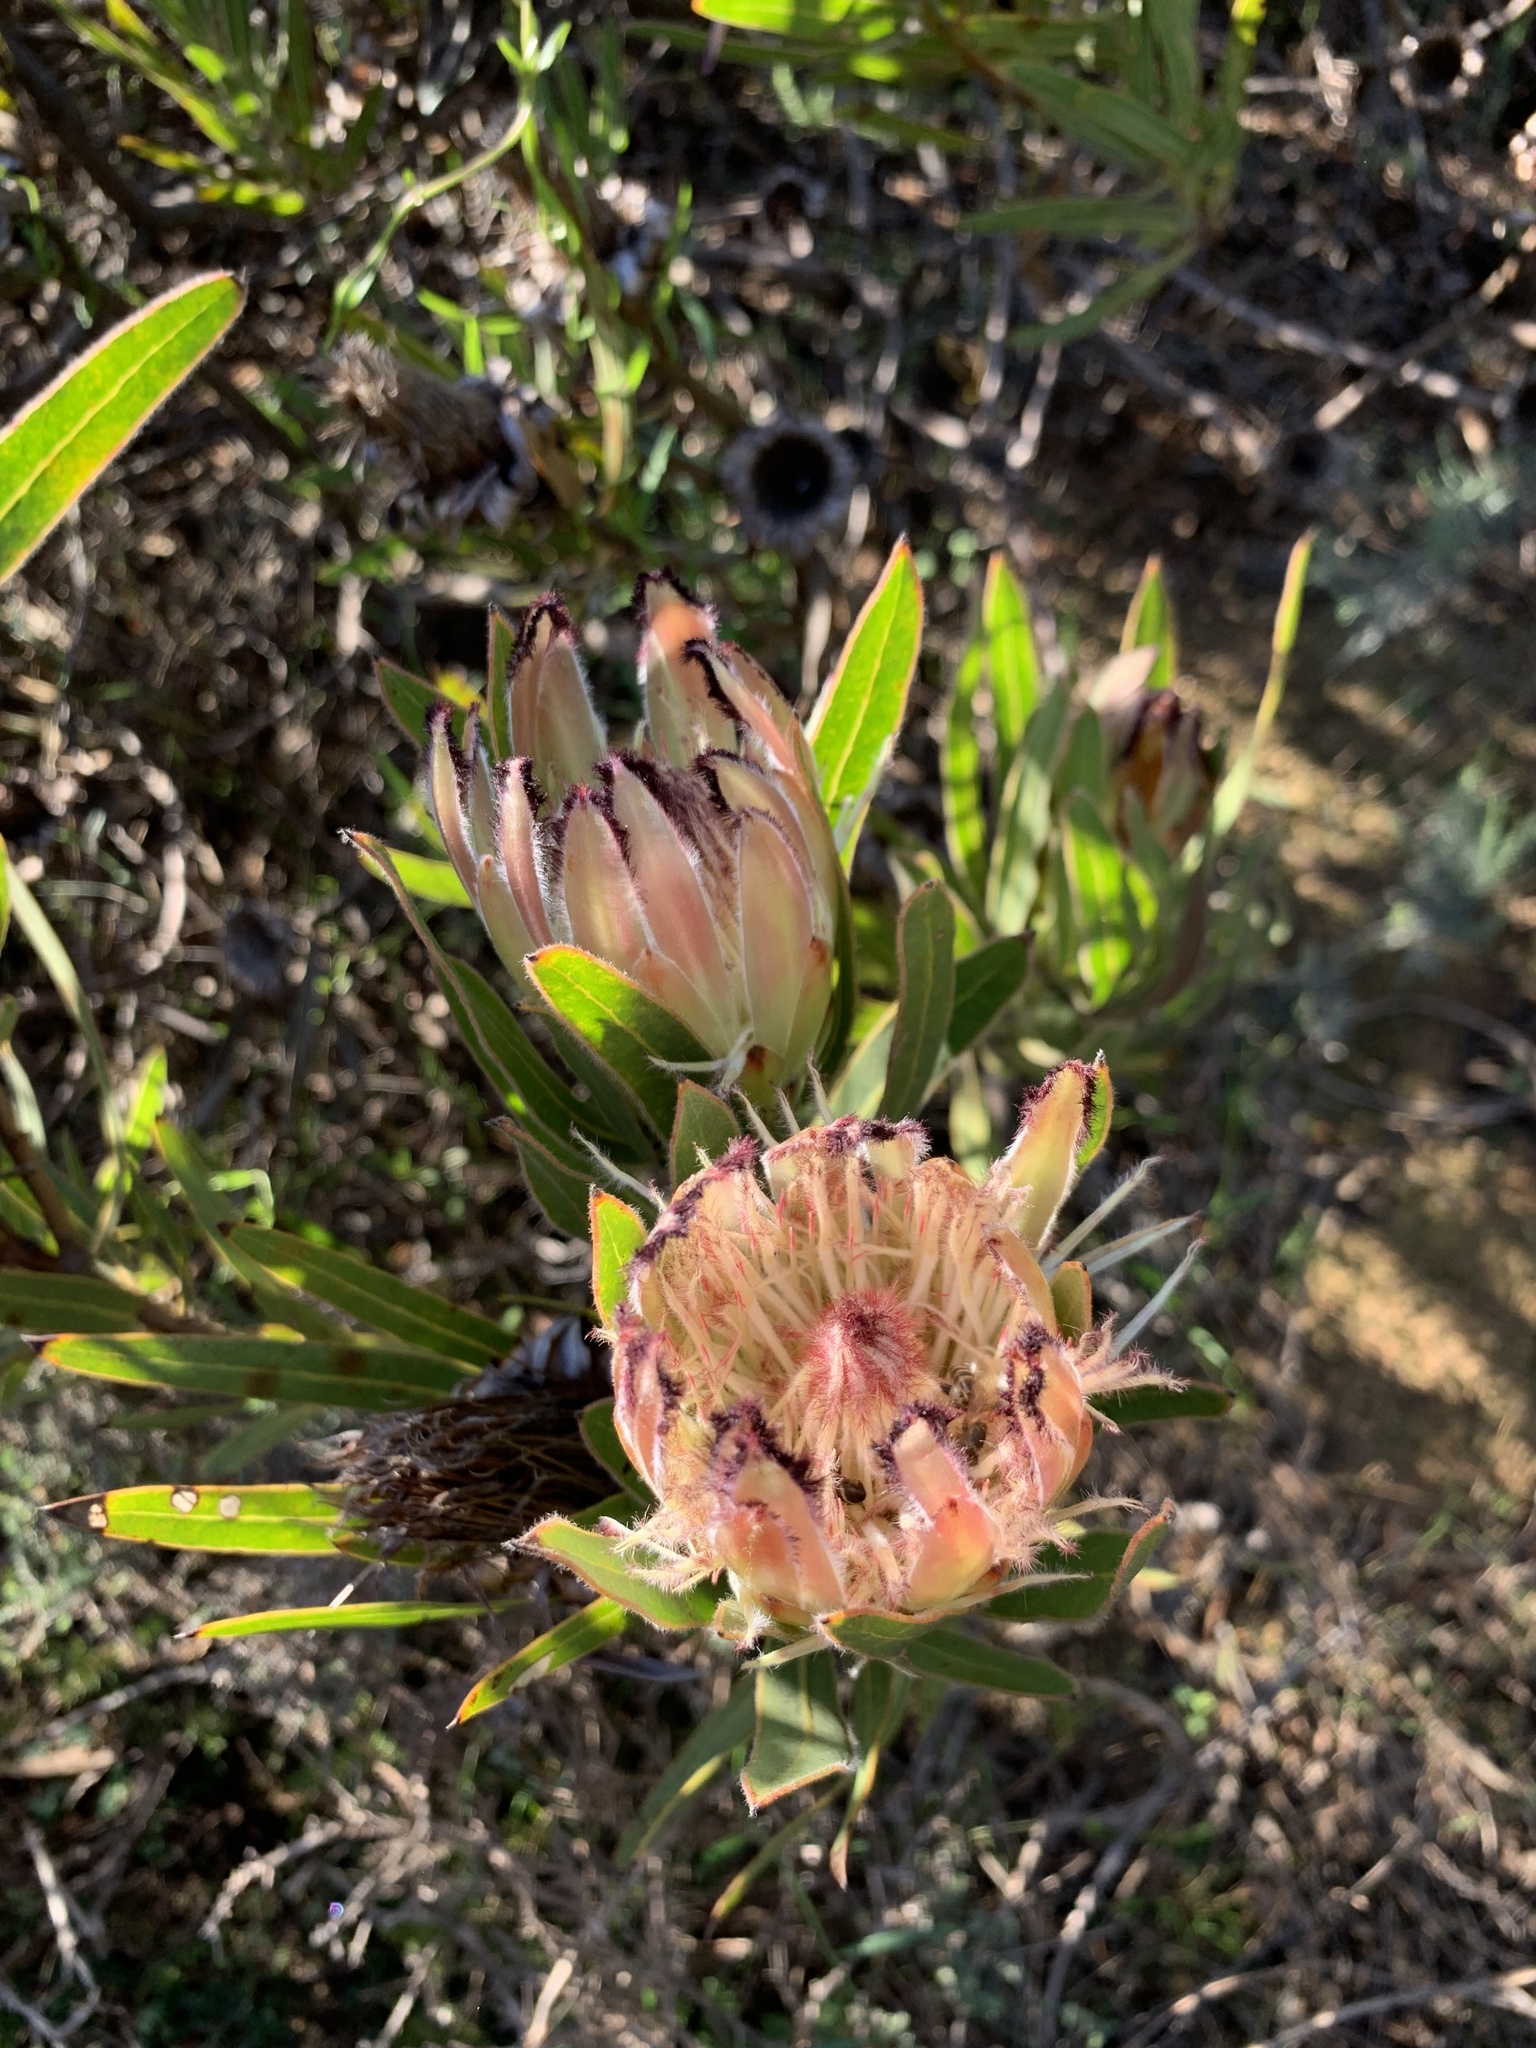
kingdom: Plantae
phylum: Tracheophyta
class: Magnoliopsida
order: Proteales
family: Proteaceae
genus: Protea
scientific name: Protea burchellii
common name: Burchell's sugarbush
